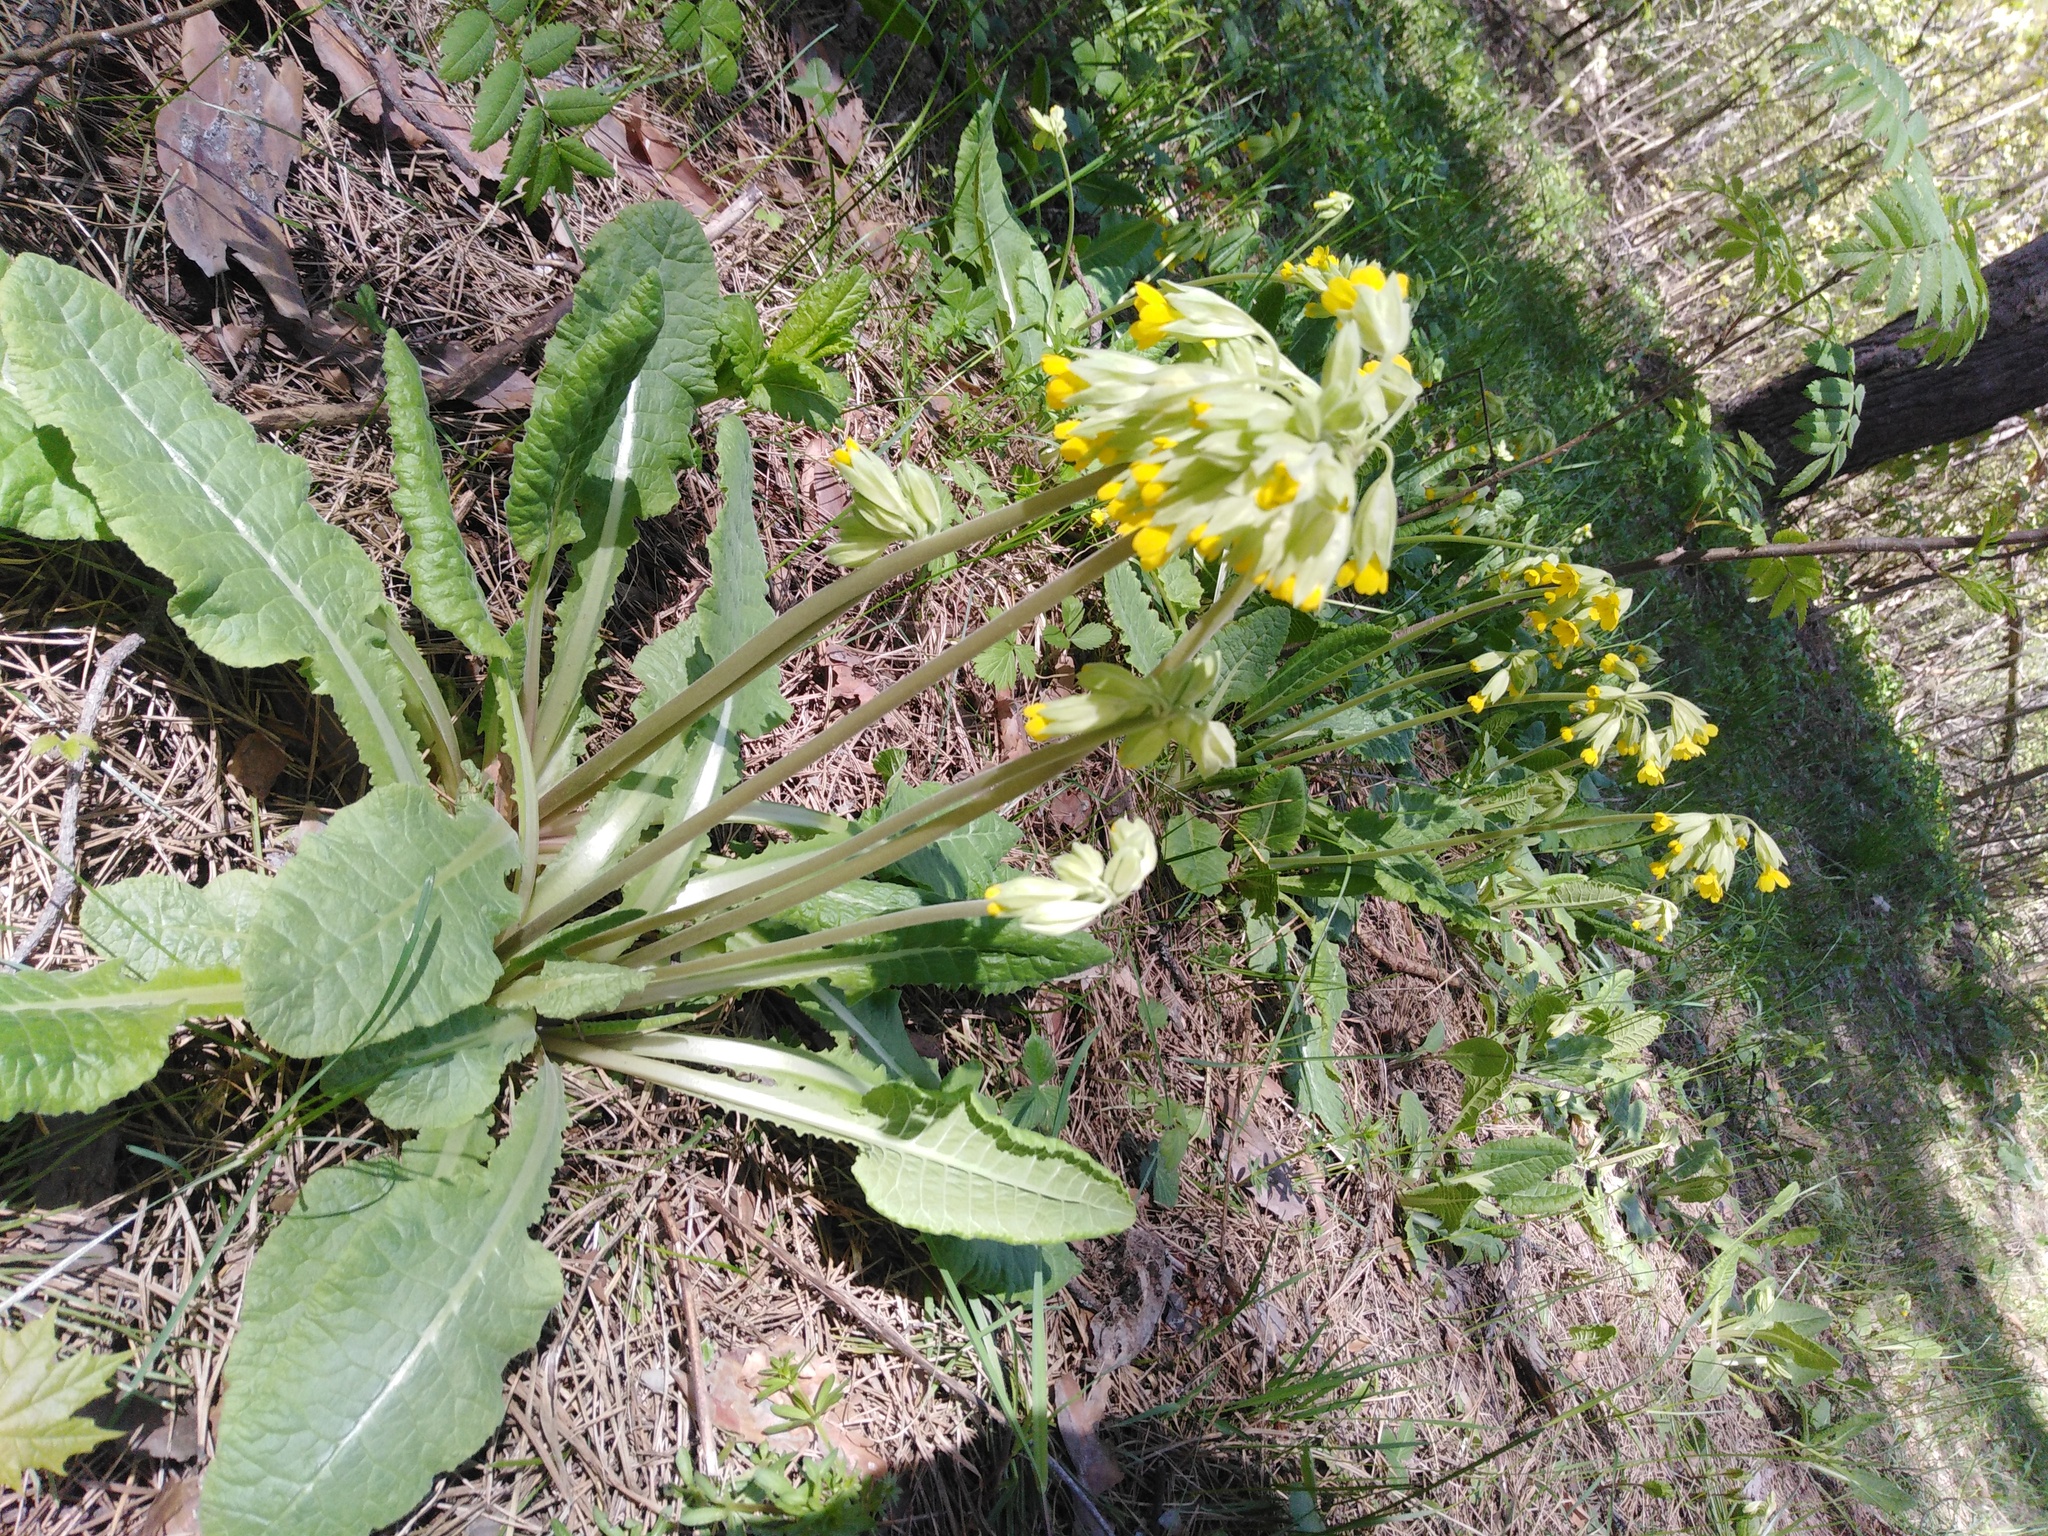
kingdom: Plantae
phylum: Tracheophyta
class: Magnoliopsida
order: Ericales
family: Primulaceae
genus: Primula
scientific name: Primula veris
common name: Cowslip
